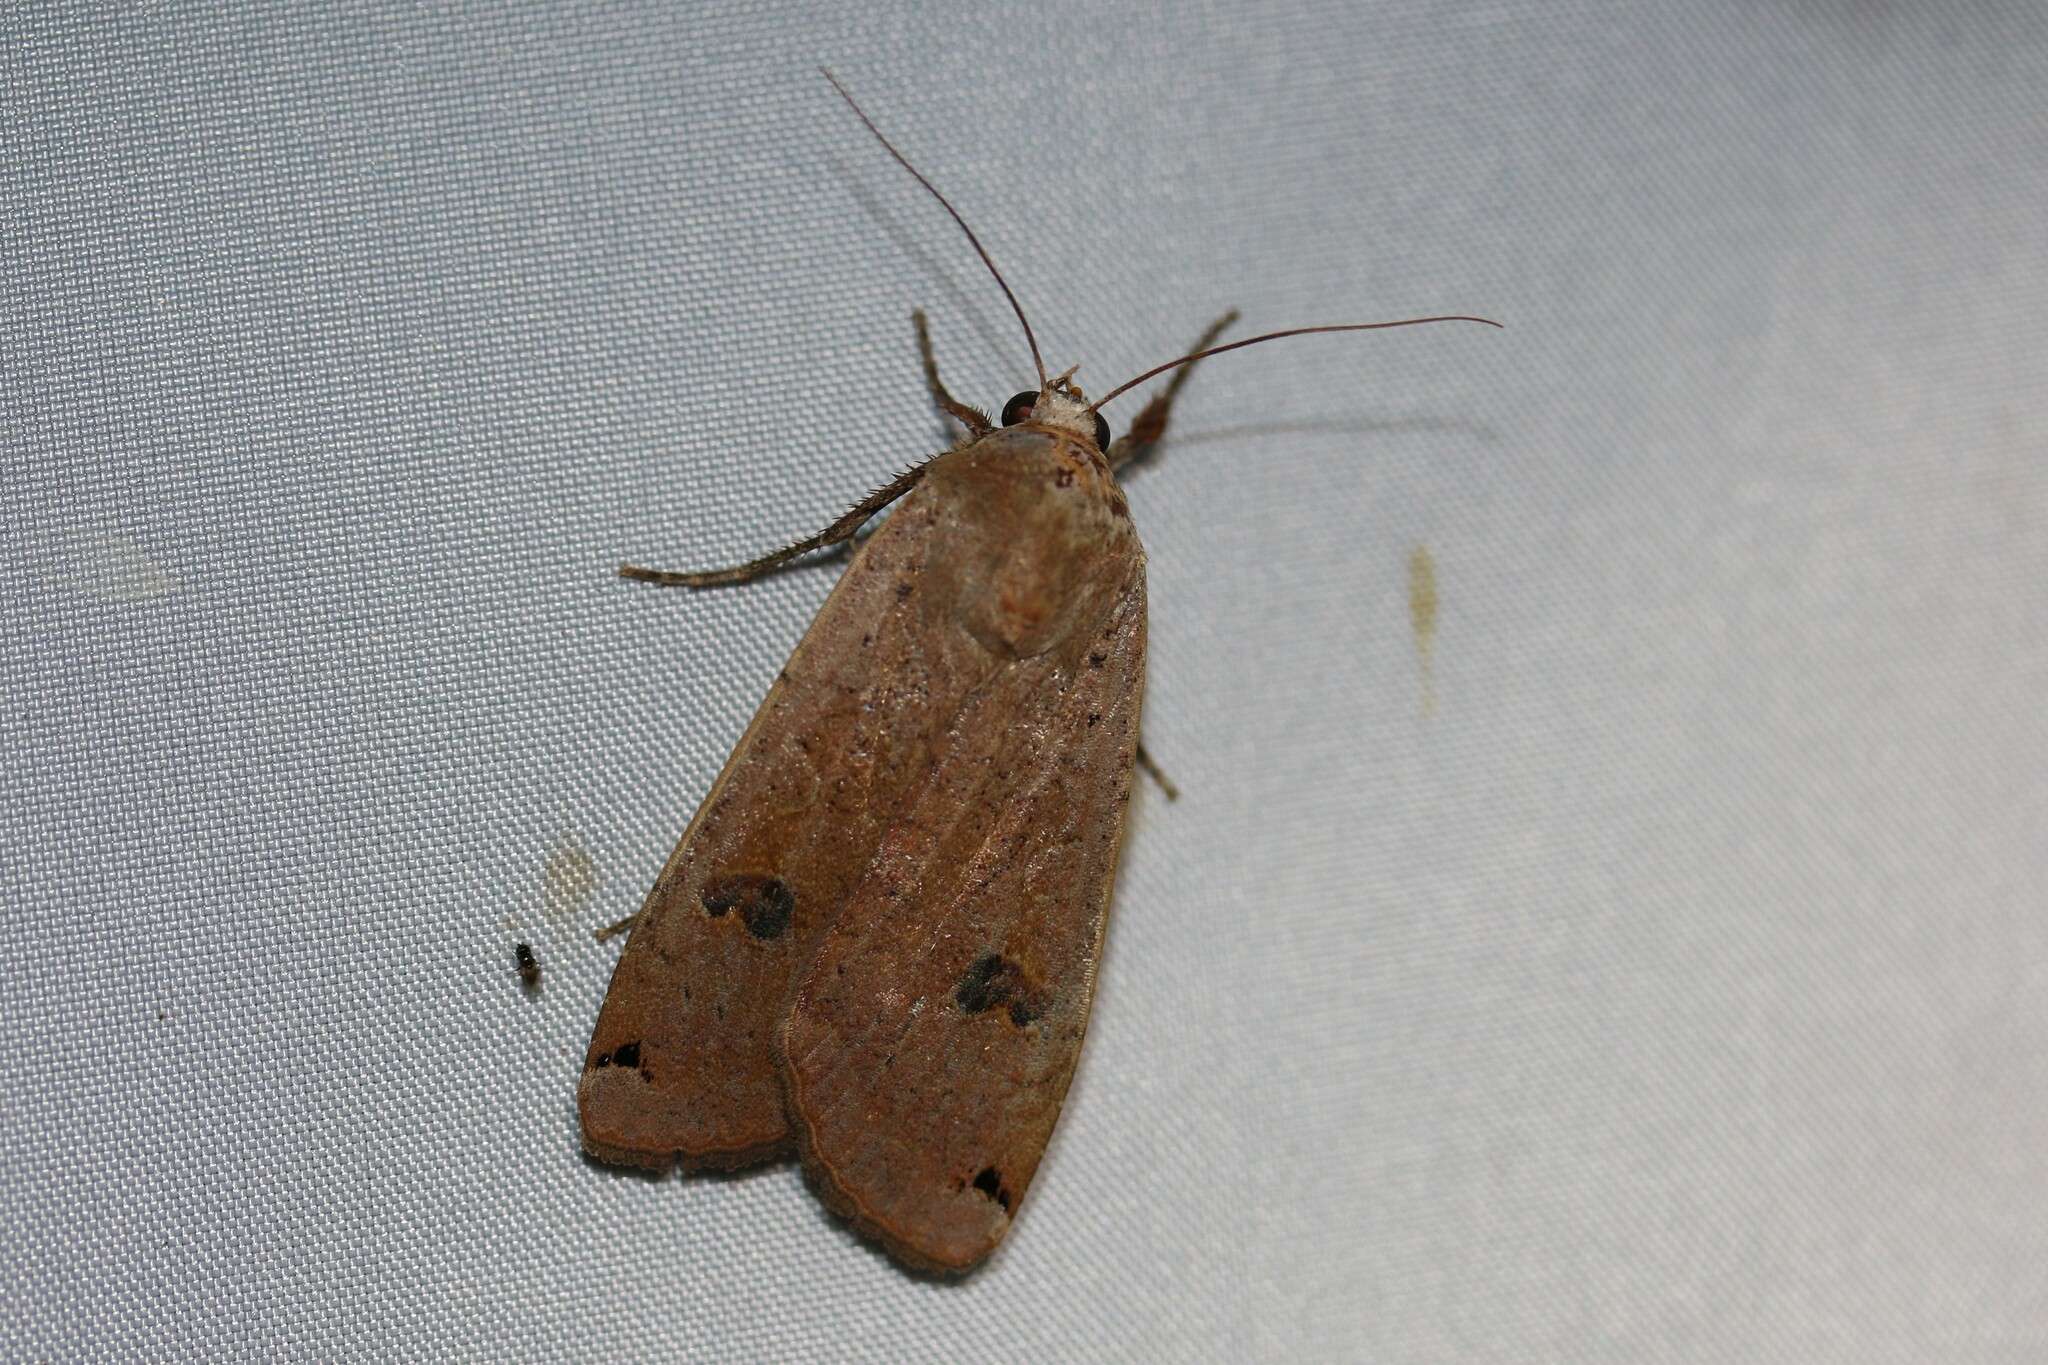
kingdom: Animalia
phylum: Arthropoda
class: Insecta
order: Lepidoptera
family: Noctuidae
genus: Noctua
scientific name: Noctua pronuba
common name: Large yellow underwing
